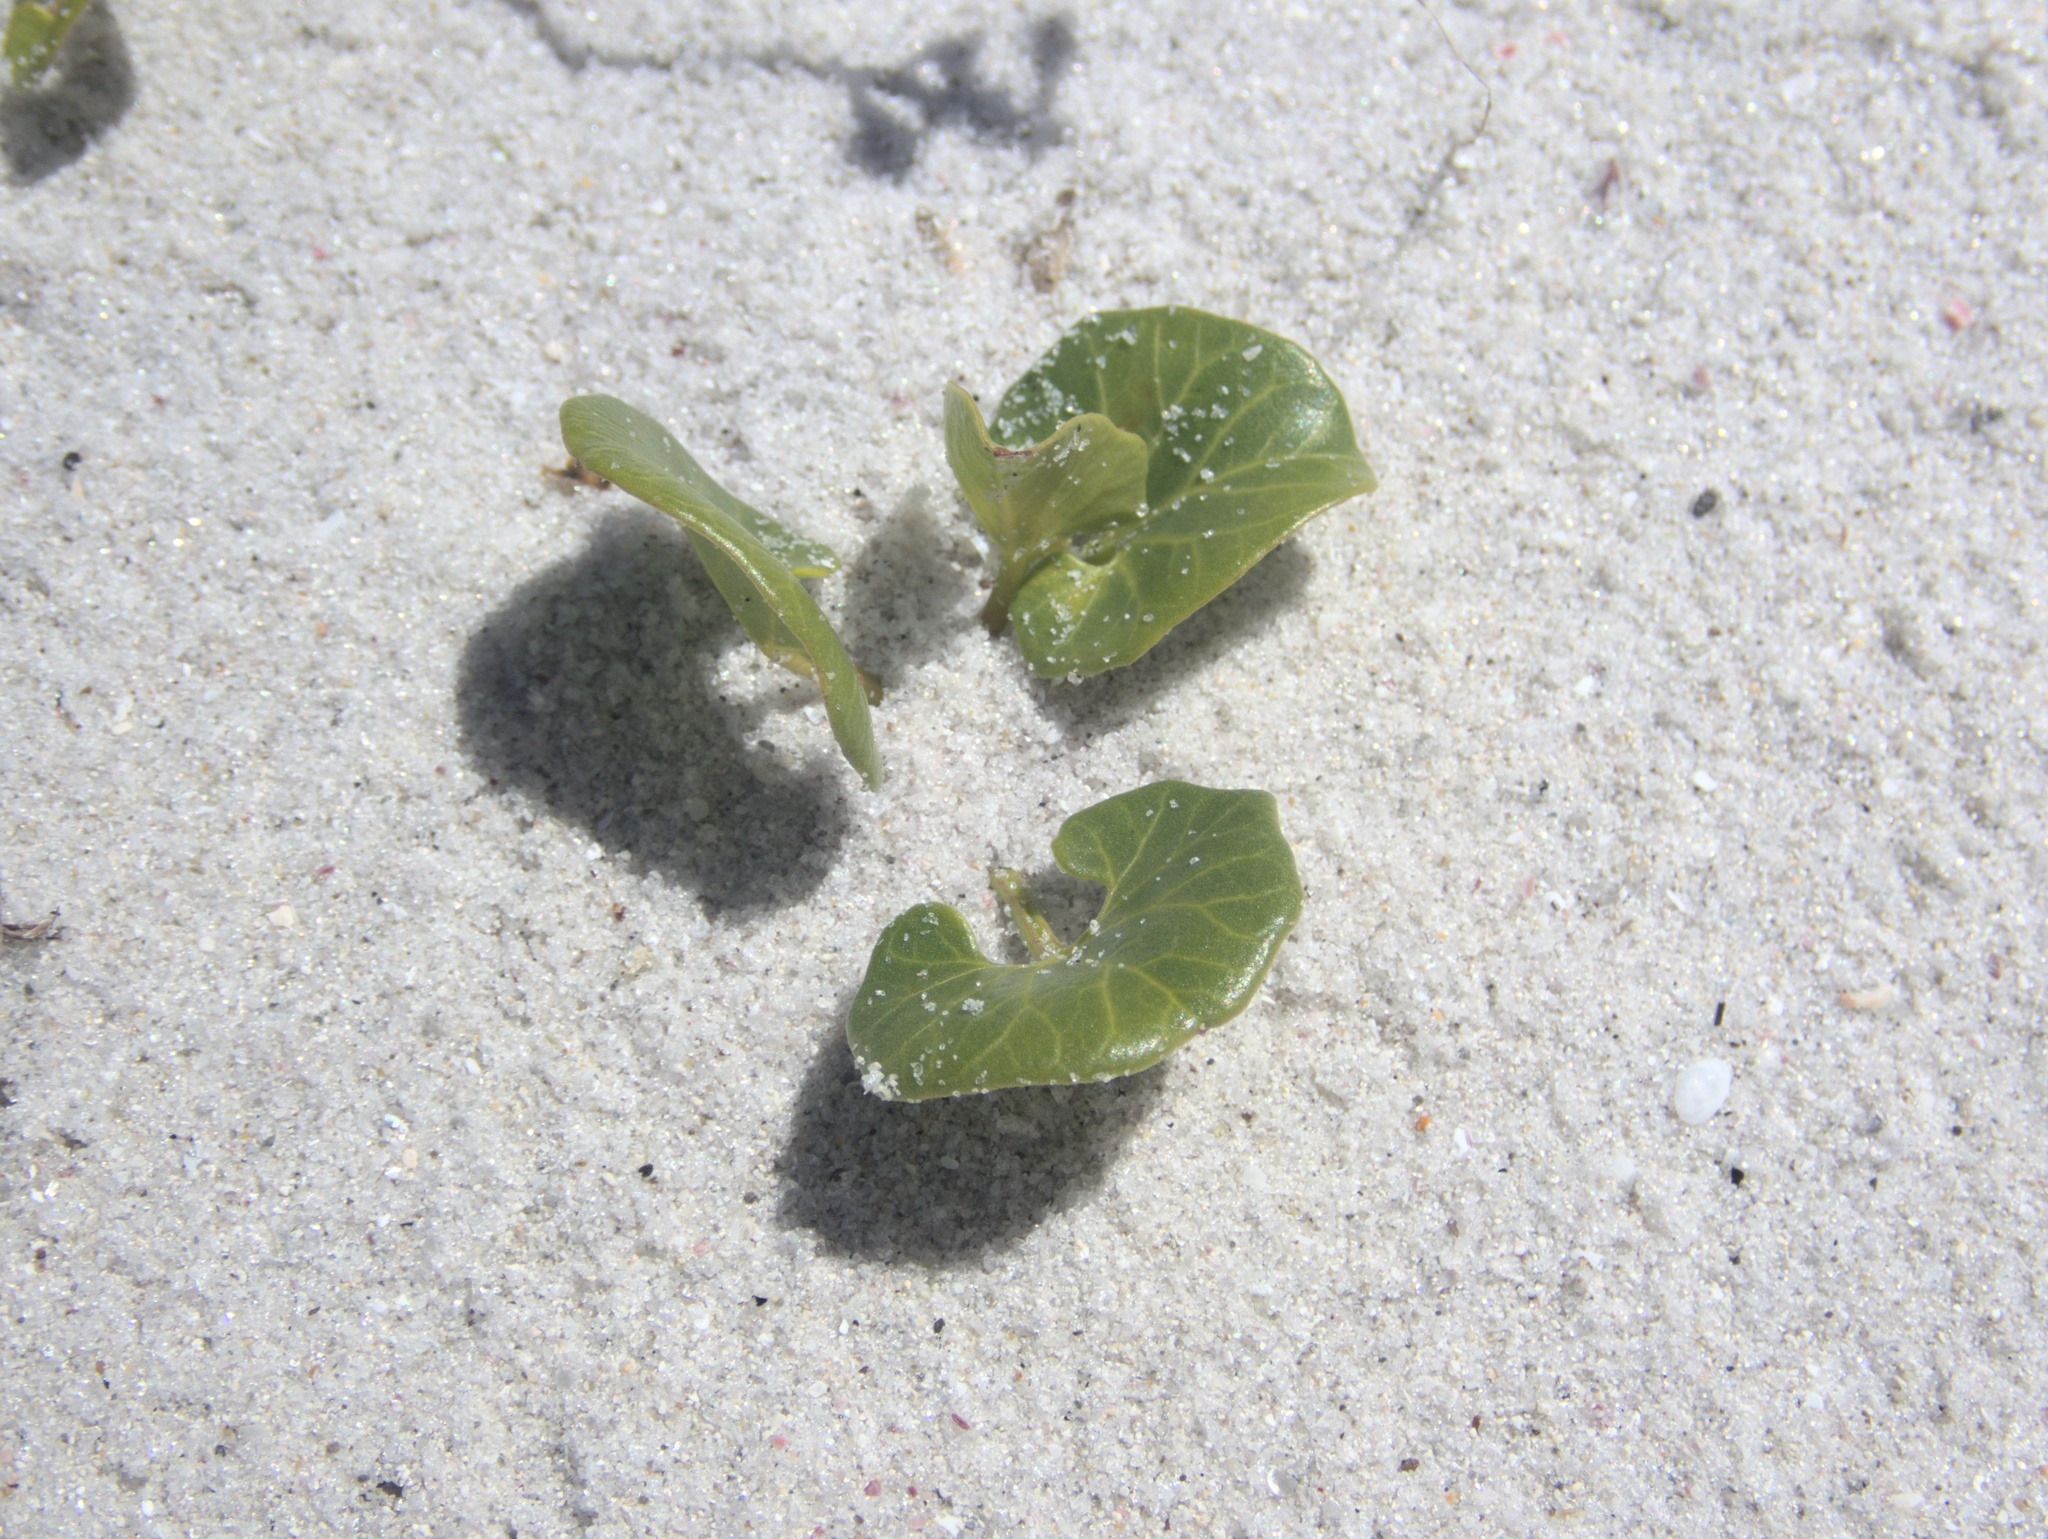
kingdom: Plantae
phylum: Tracheophyta
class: Magnoliopsida
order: Solanales
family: Convolvulaceae
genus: Calystegia
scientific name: Calystegia soldanella
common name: Sea bindweed
